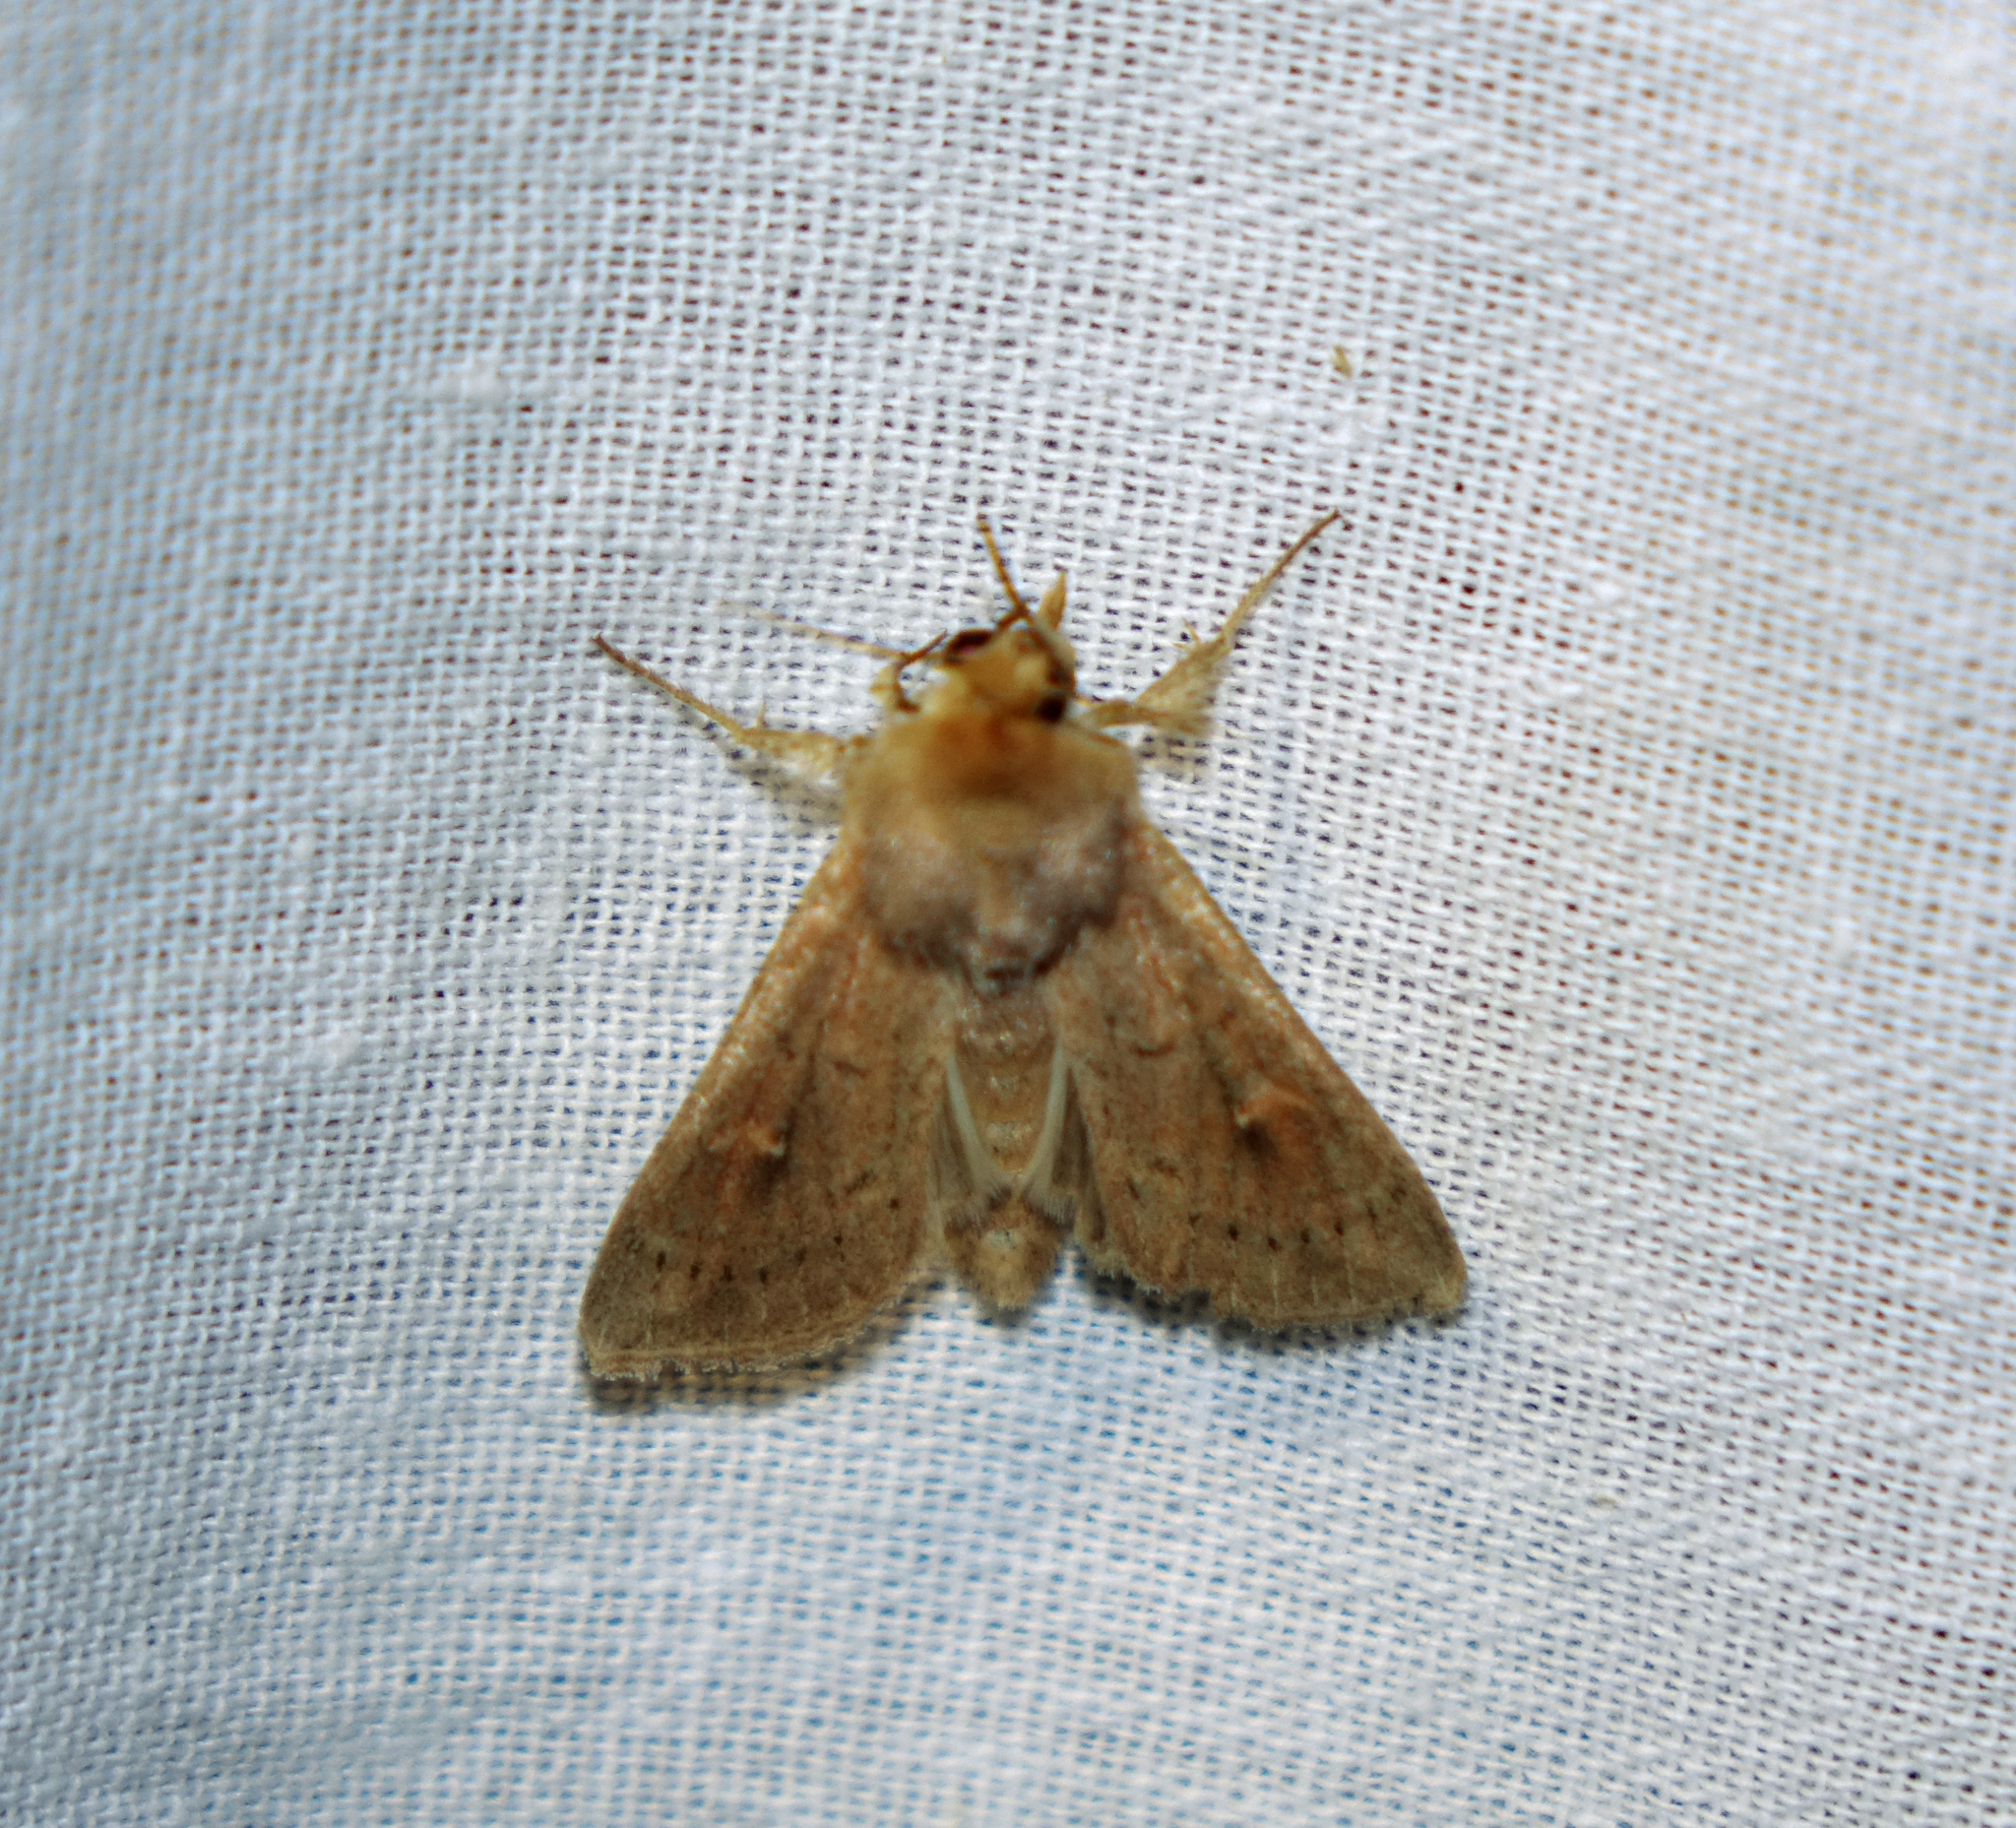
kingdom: Animalia
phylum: Arthropoda
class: Insecta
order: Lepidoptera
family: Noctuidae
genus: Mythimna
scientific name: Mythimna ferrago
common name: Clay
